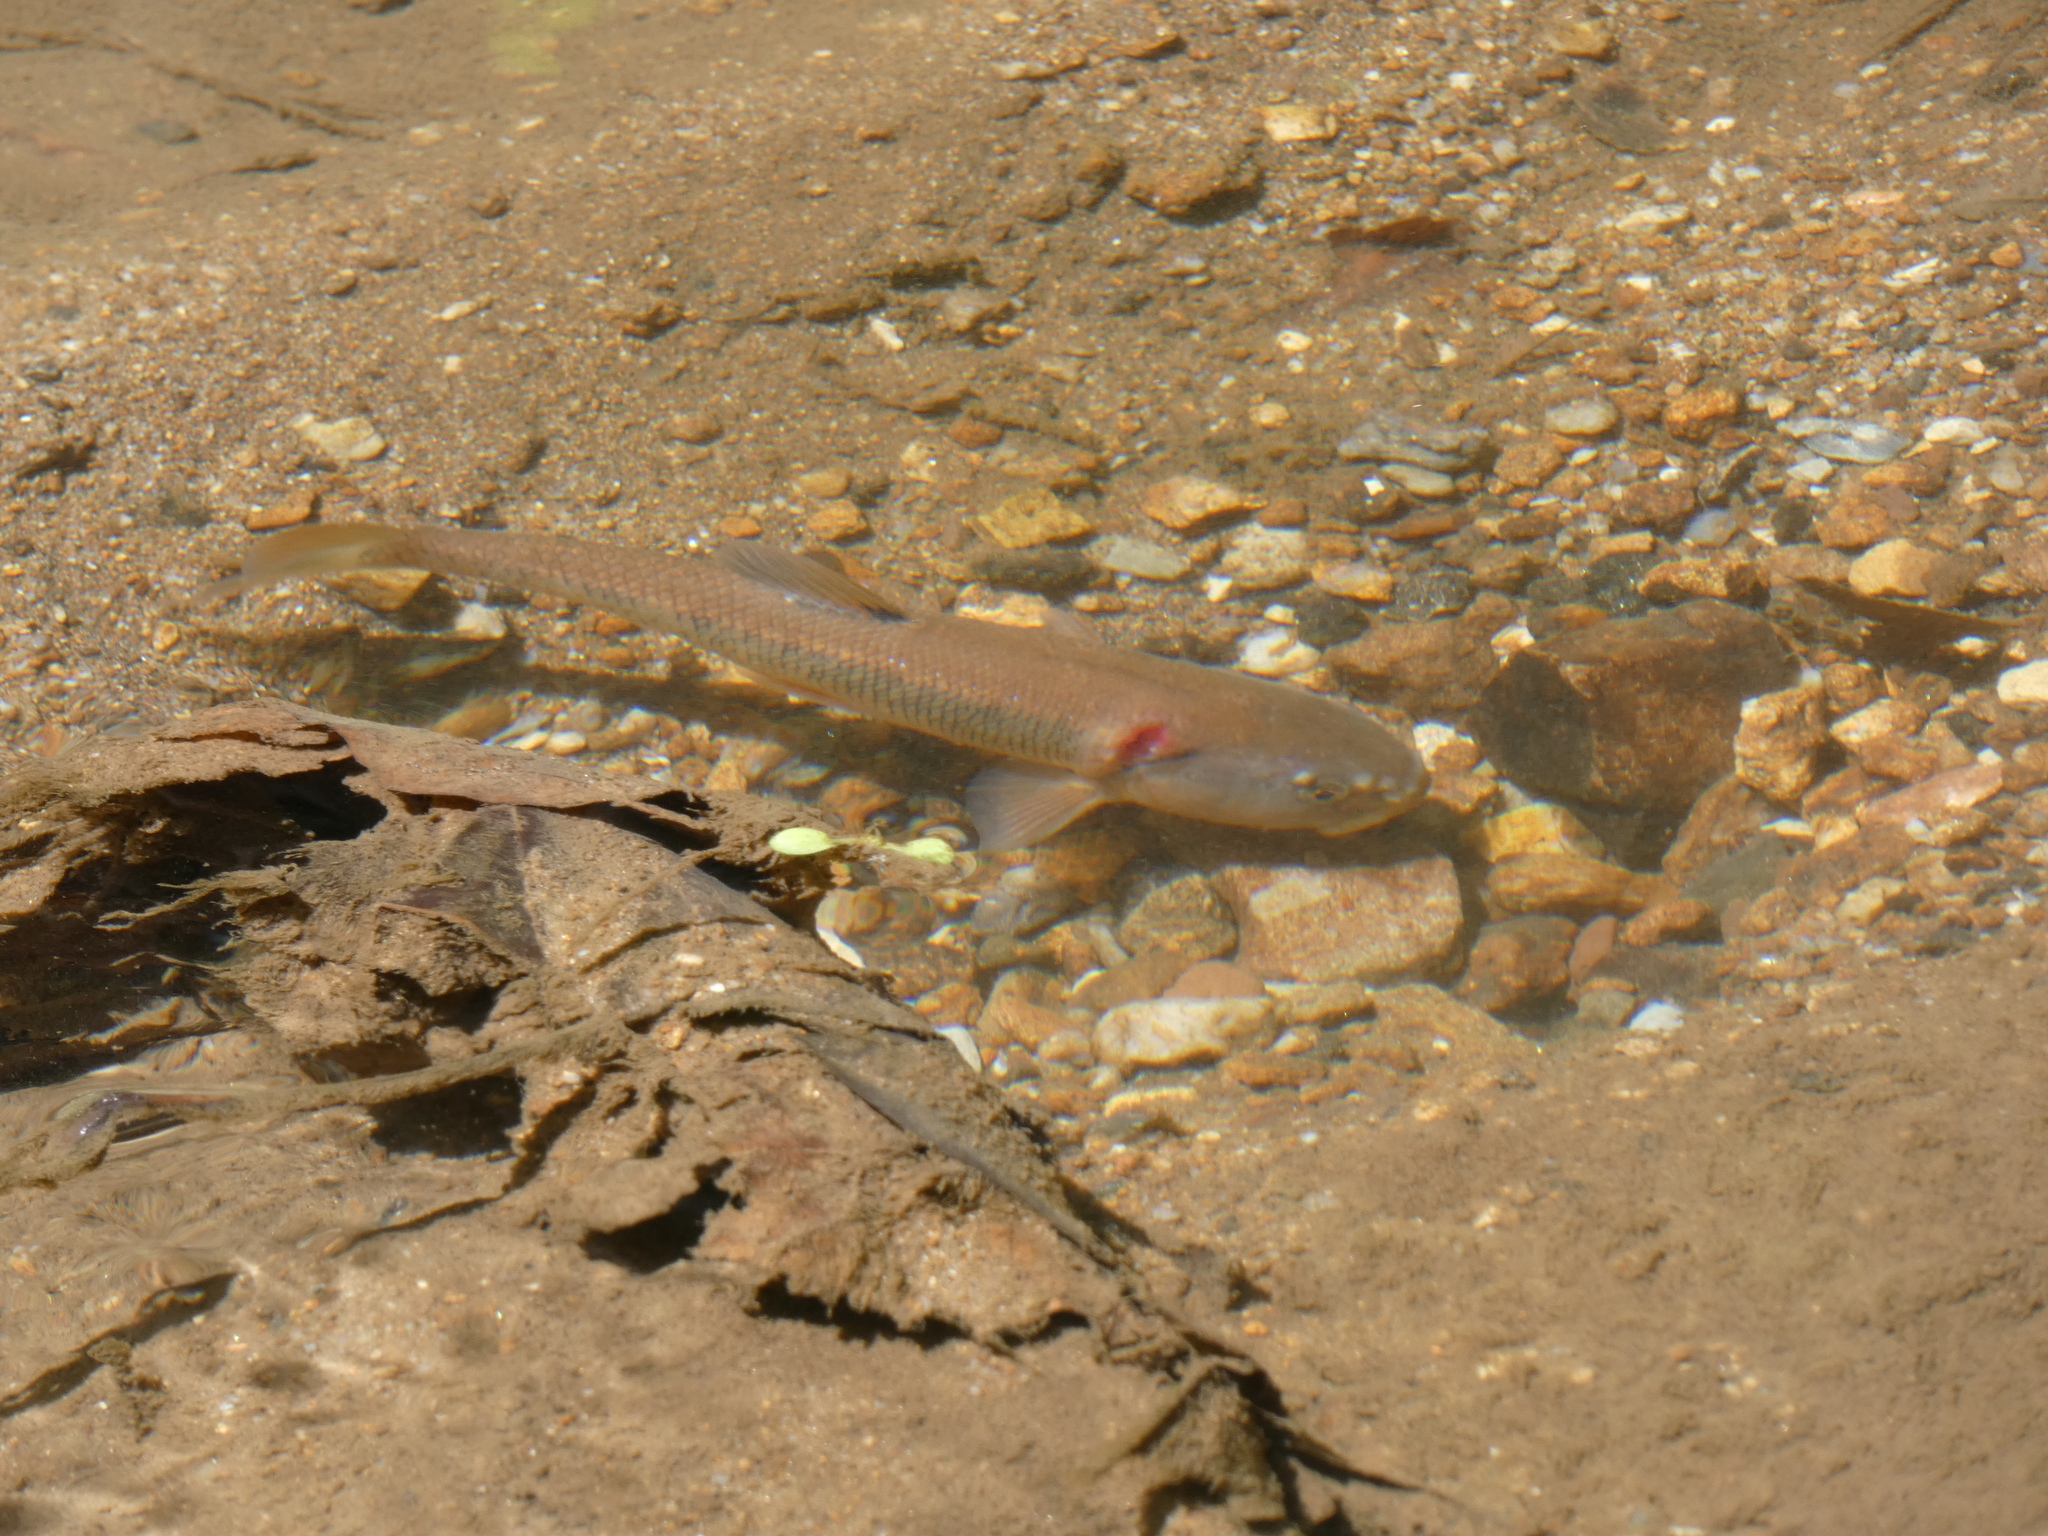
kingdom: Animalia
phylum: Chordata
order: Cypriniformes
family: Cyprinidae
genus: Semotilus
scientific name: Semotilus atromaculatus
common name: Creek chub
